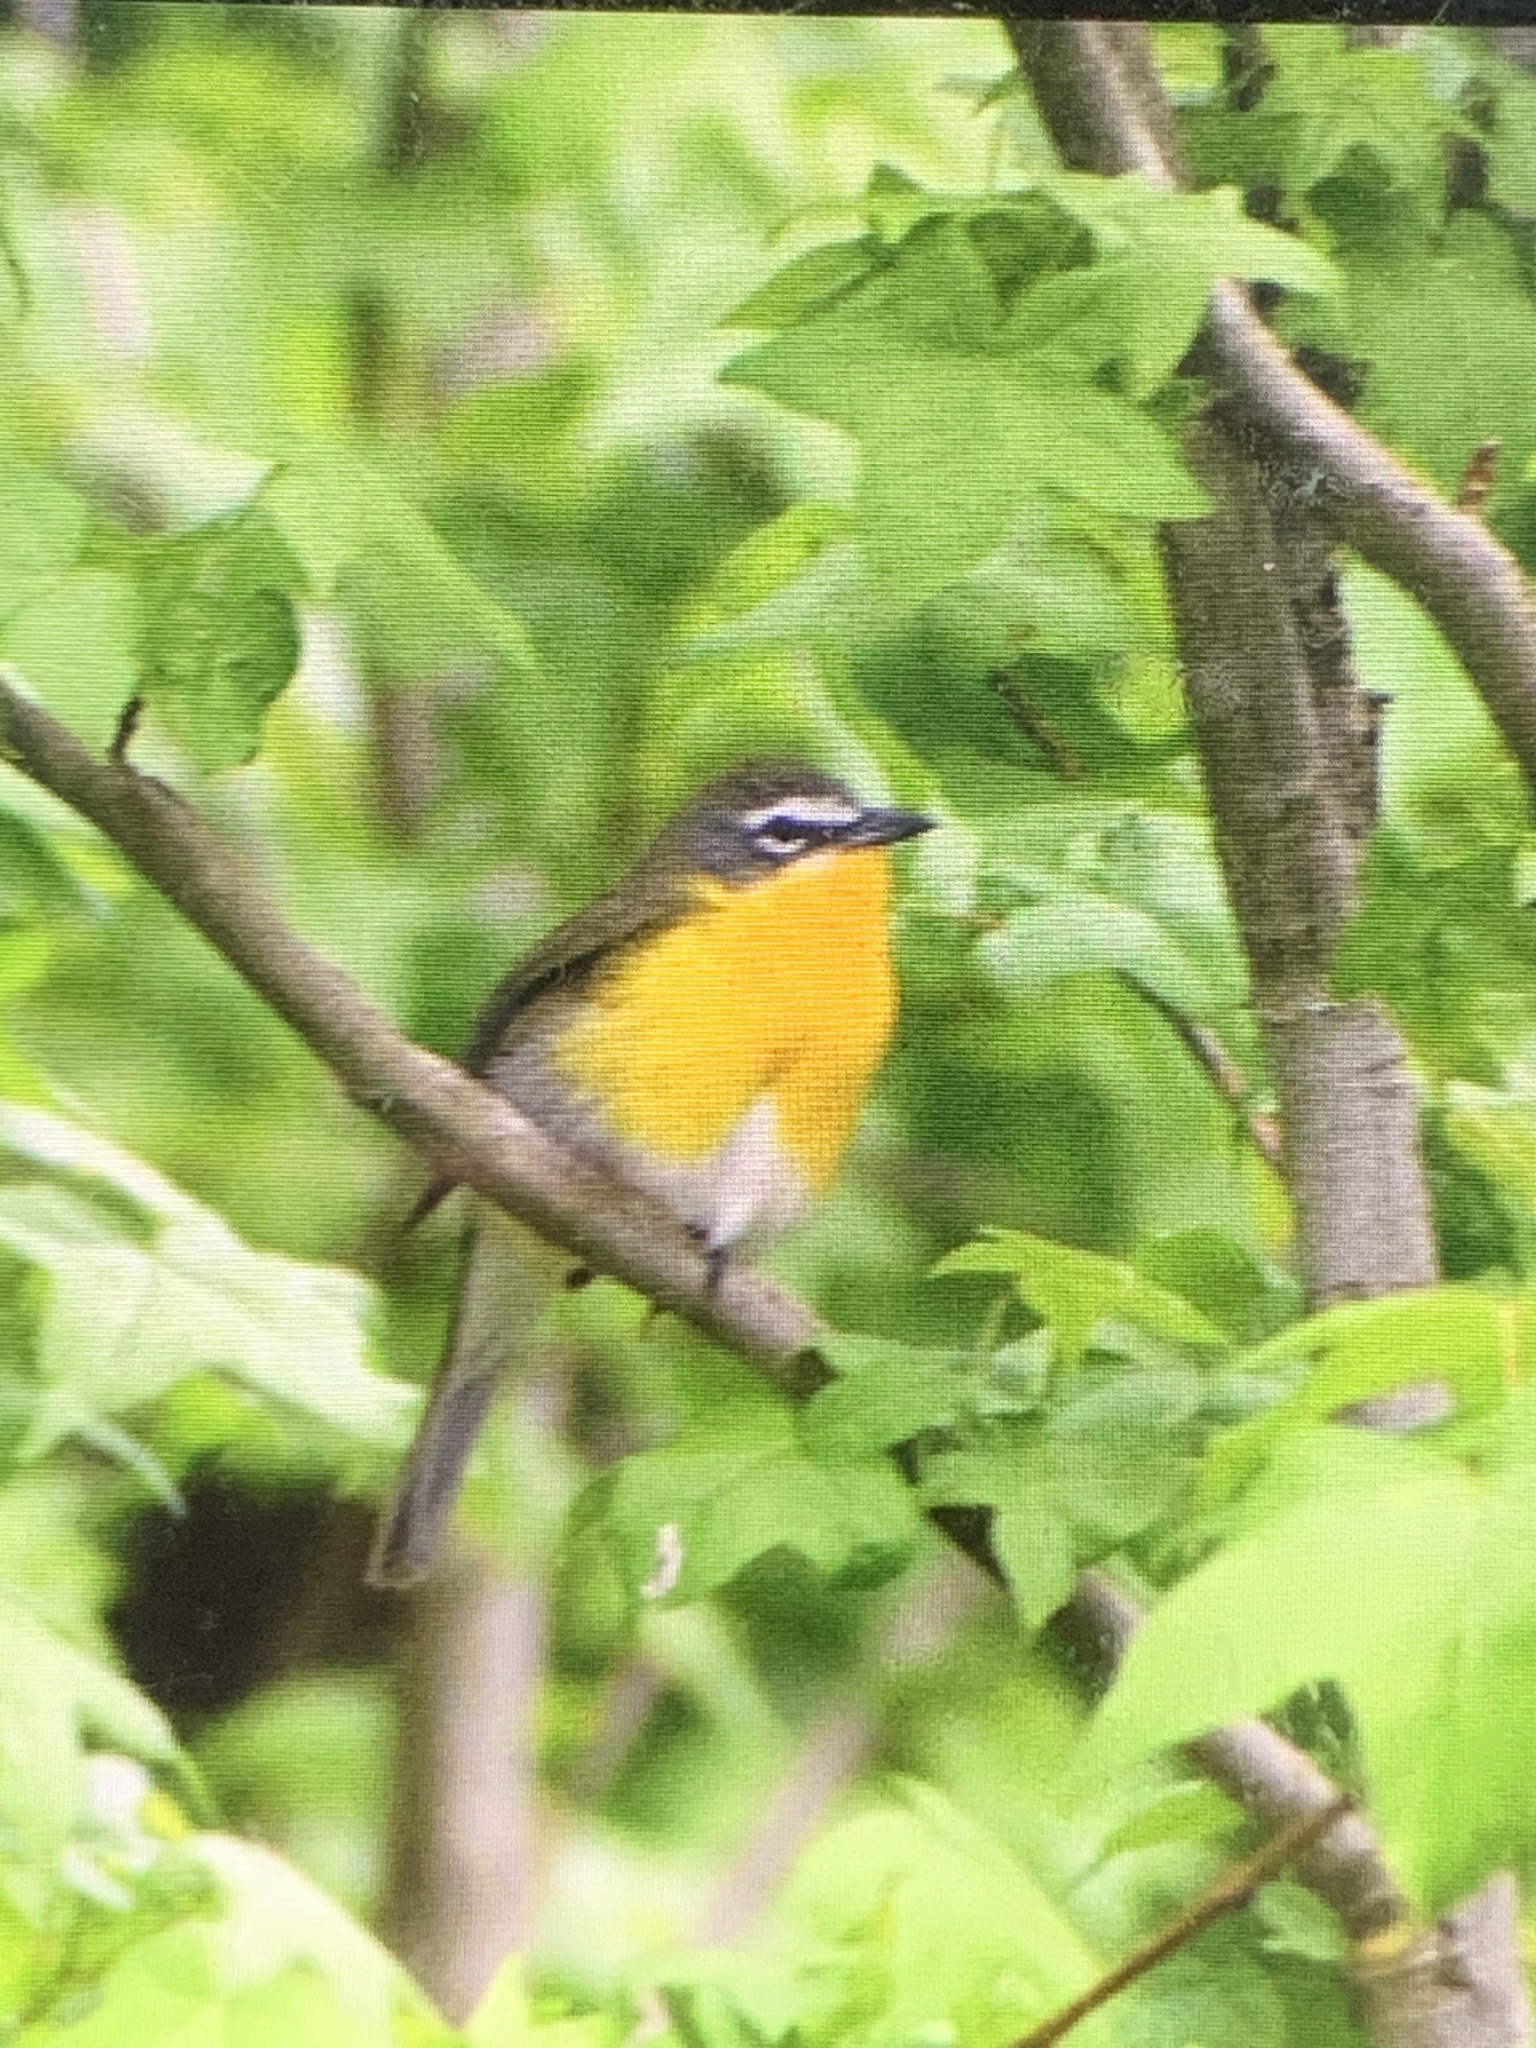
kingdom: Animalia
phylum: Chordata
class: Aves
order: Passeriformes
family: Parulidae
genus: Icteria
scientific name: Icteria virens
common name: Yellow-breasted chat
